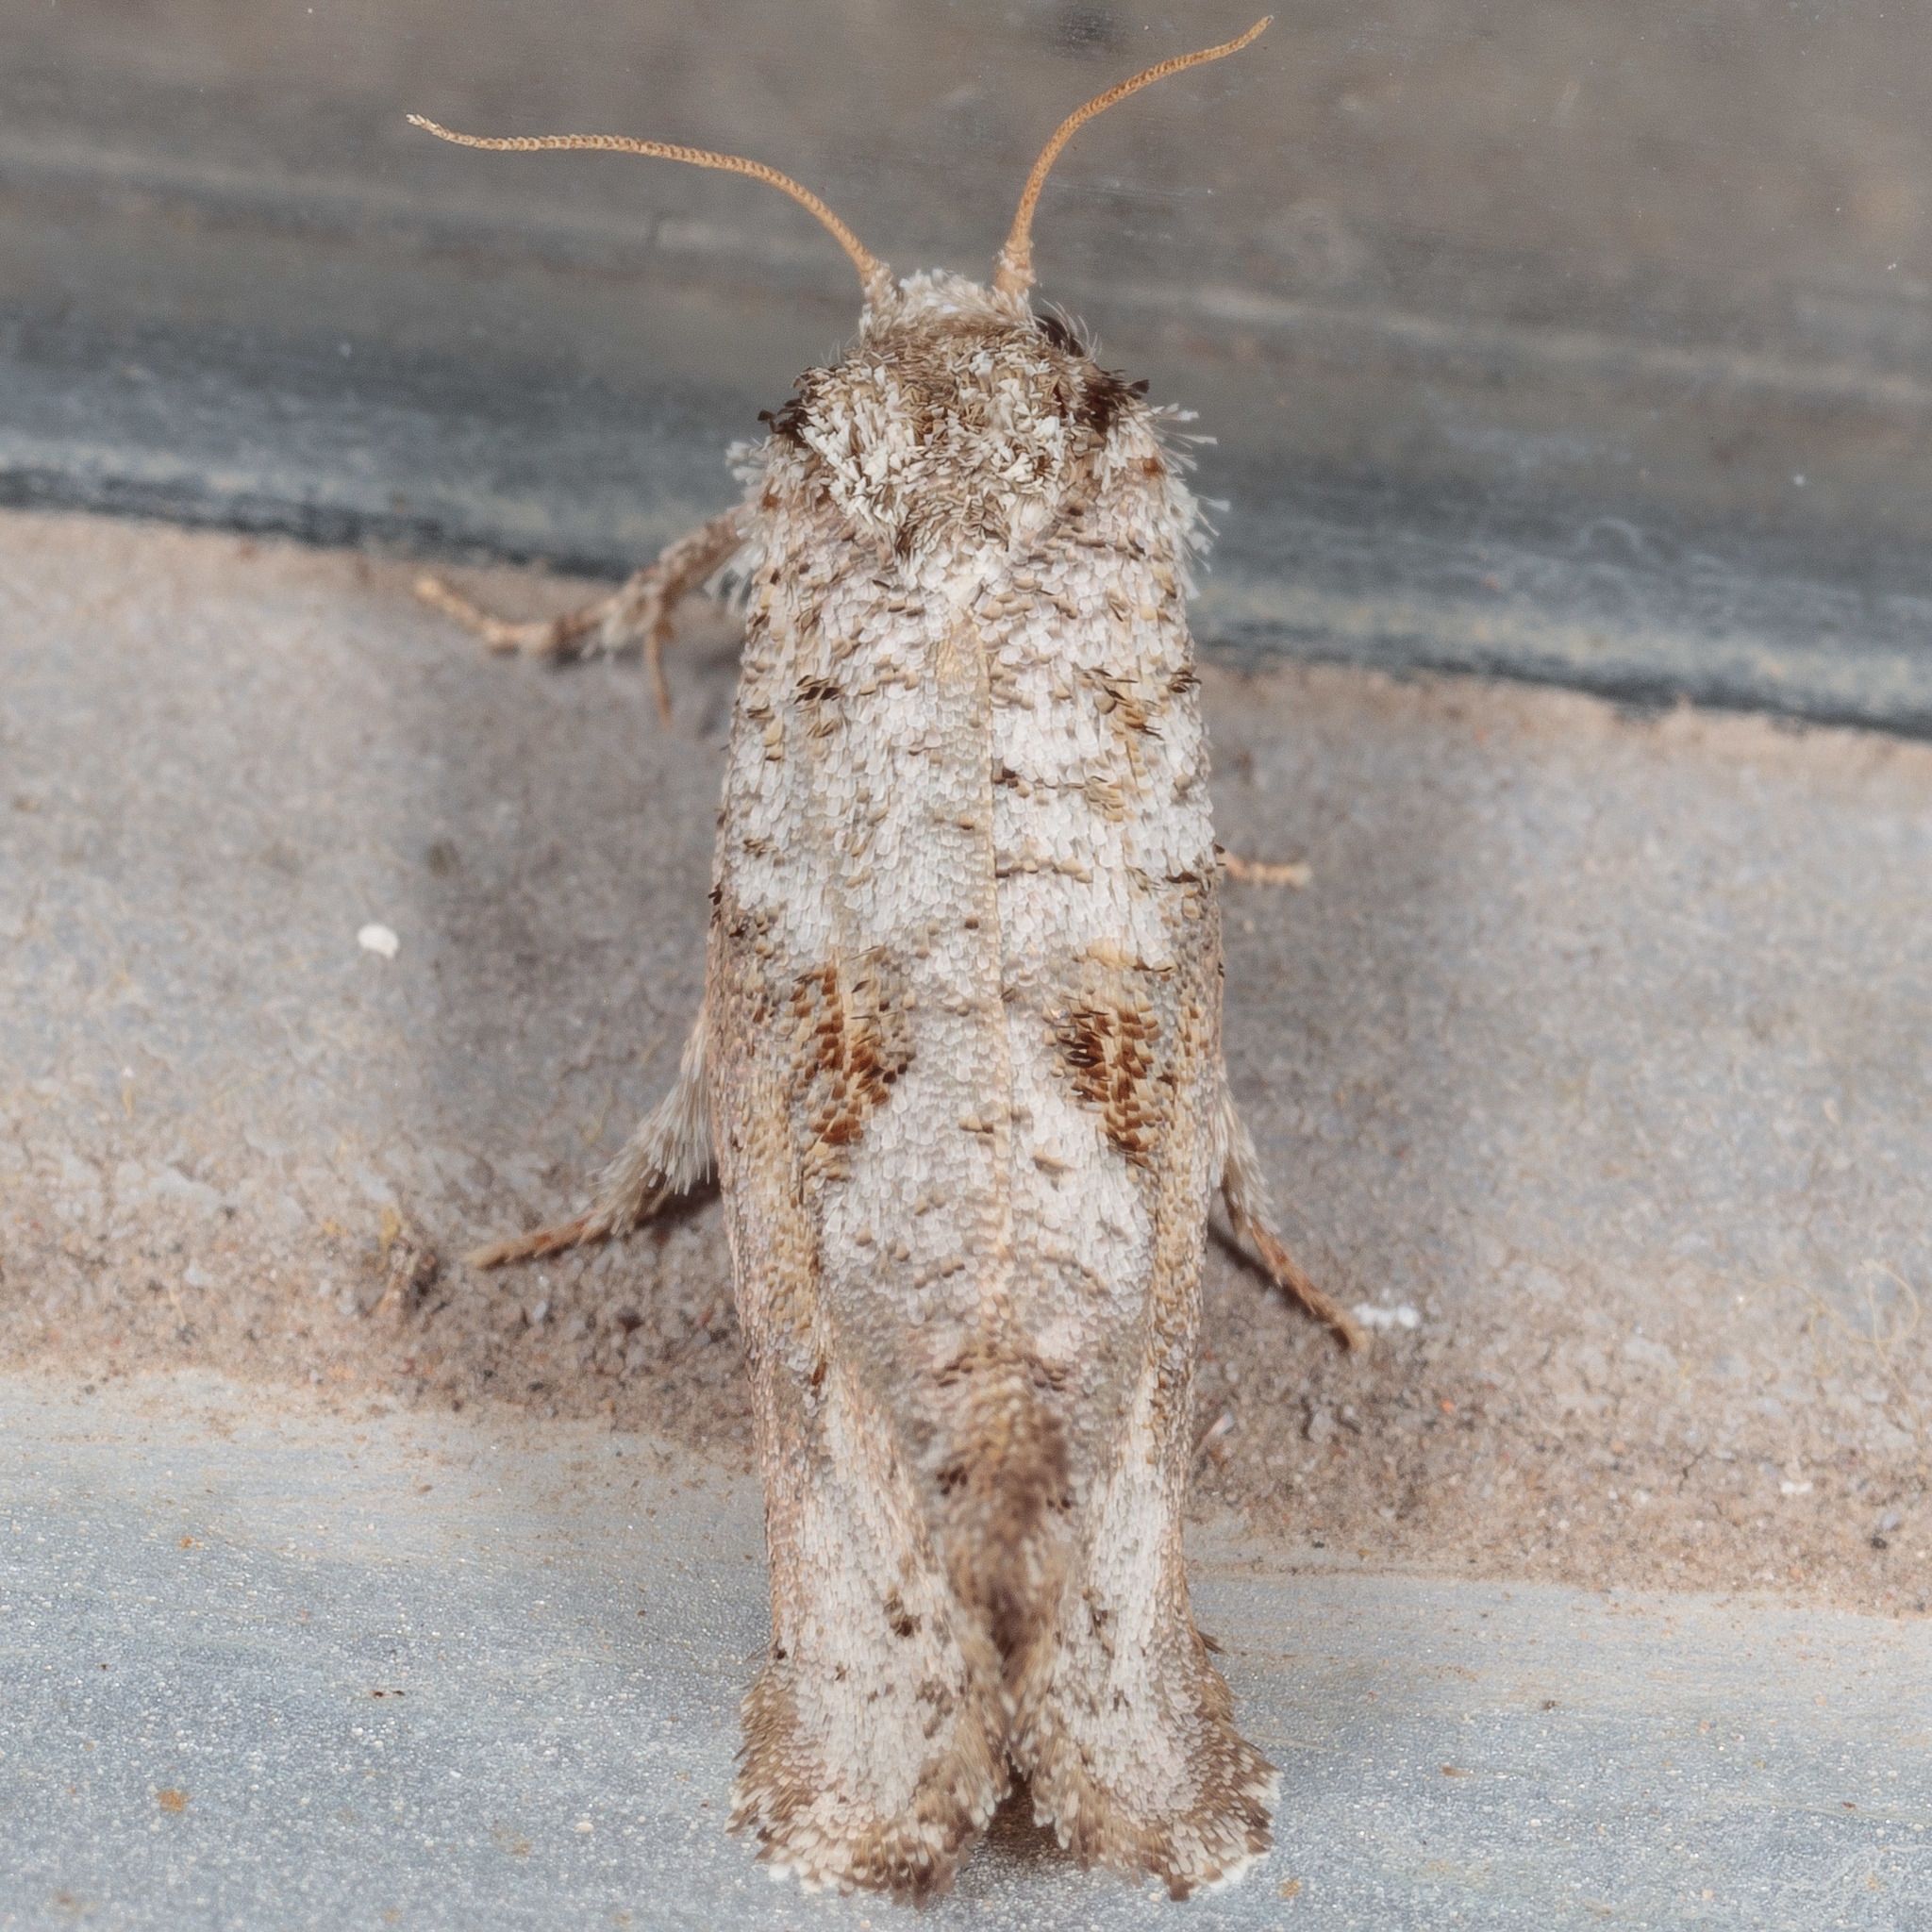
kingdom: Animalia
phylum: Arthropoda
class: Insecta
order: Lepidoptera
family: Tineidae
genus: Acrolophus
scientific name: Acrolophus piger
